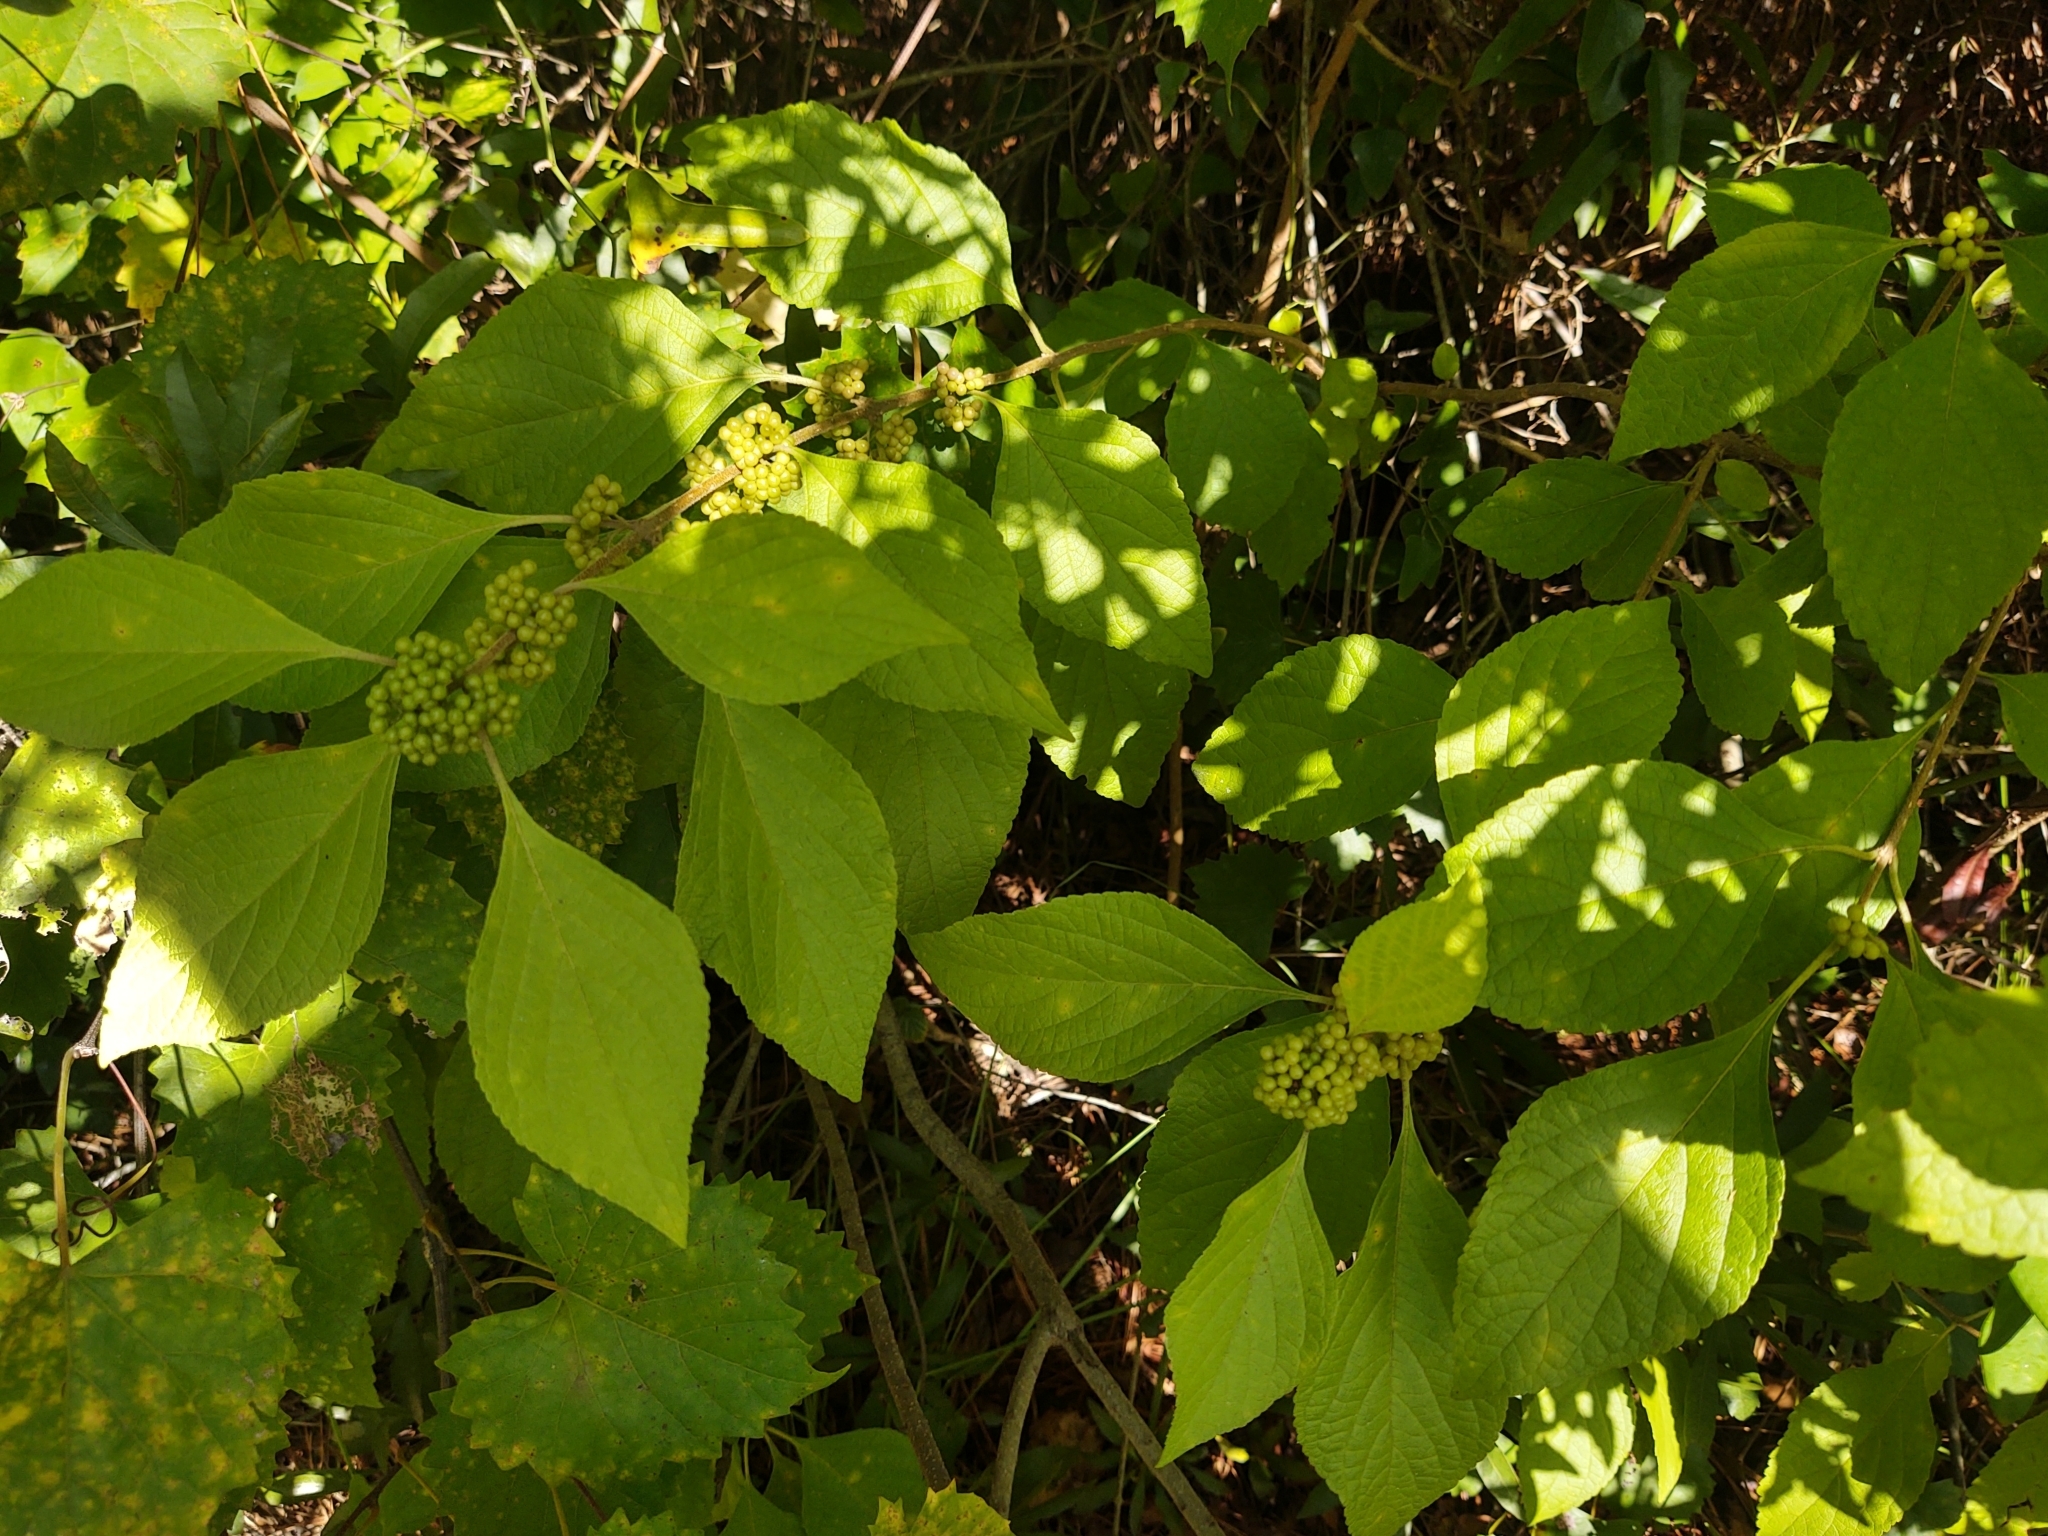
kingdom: Plantae
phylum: Tracheophyta
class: Magnoliopsida
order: Lamiales
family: Lamiaceae
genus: Callicarpa
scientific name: Callicarpa americana
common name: American beautyberry
